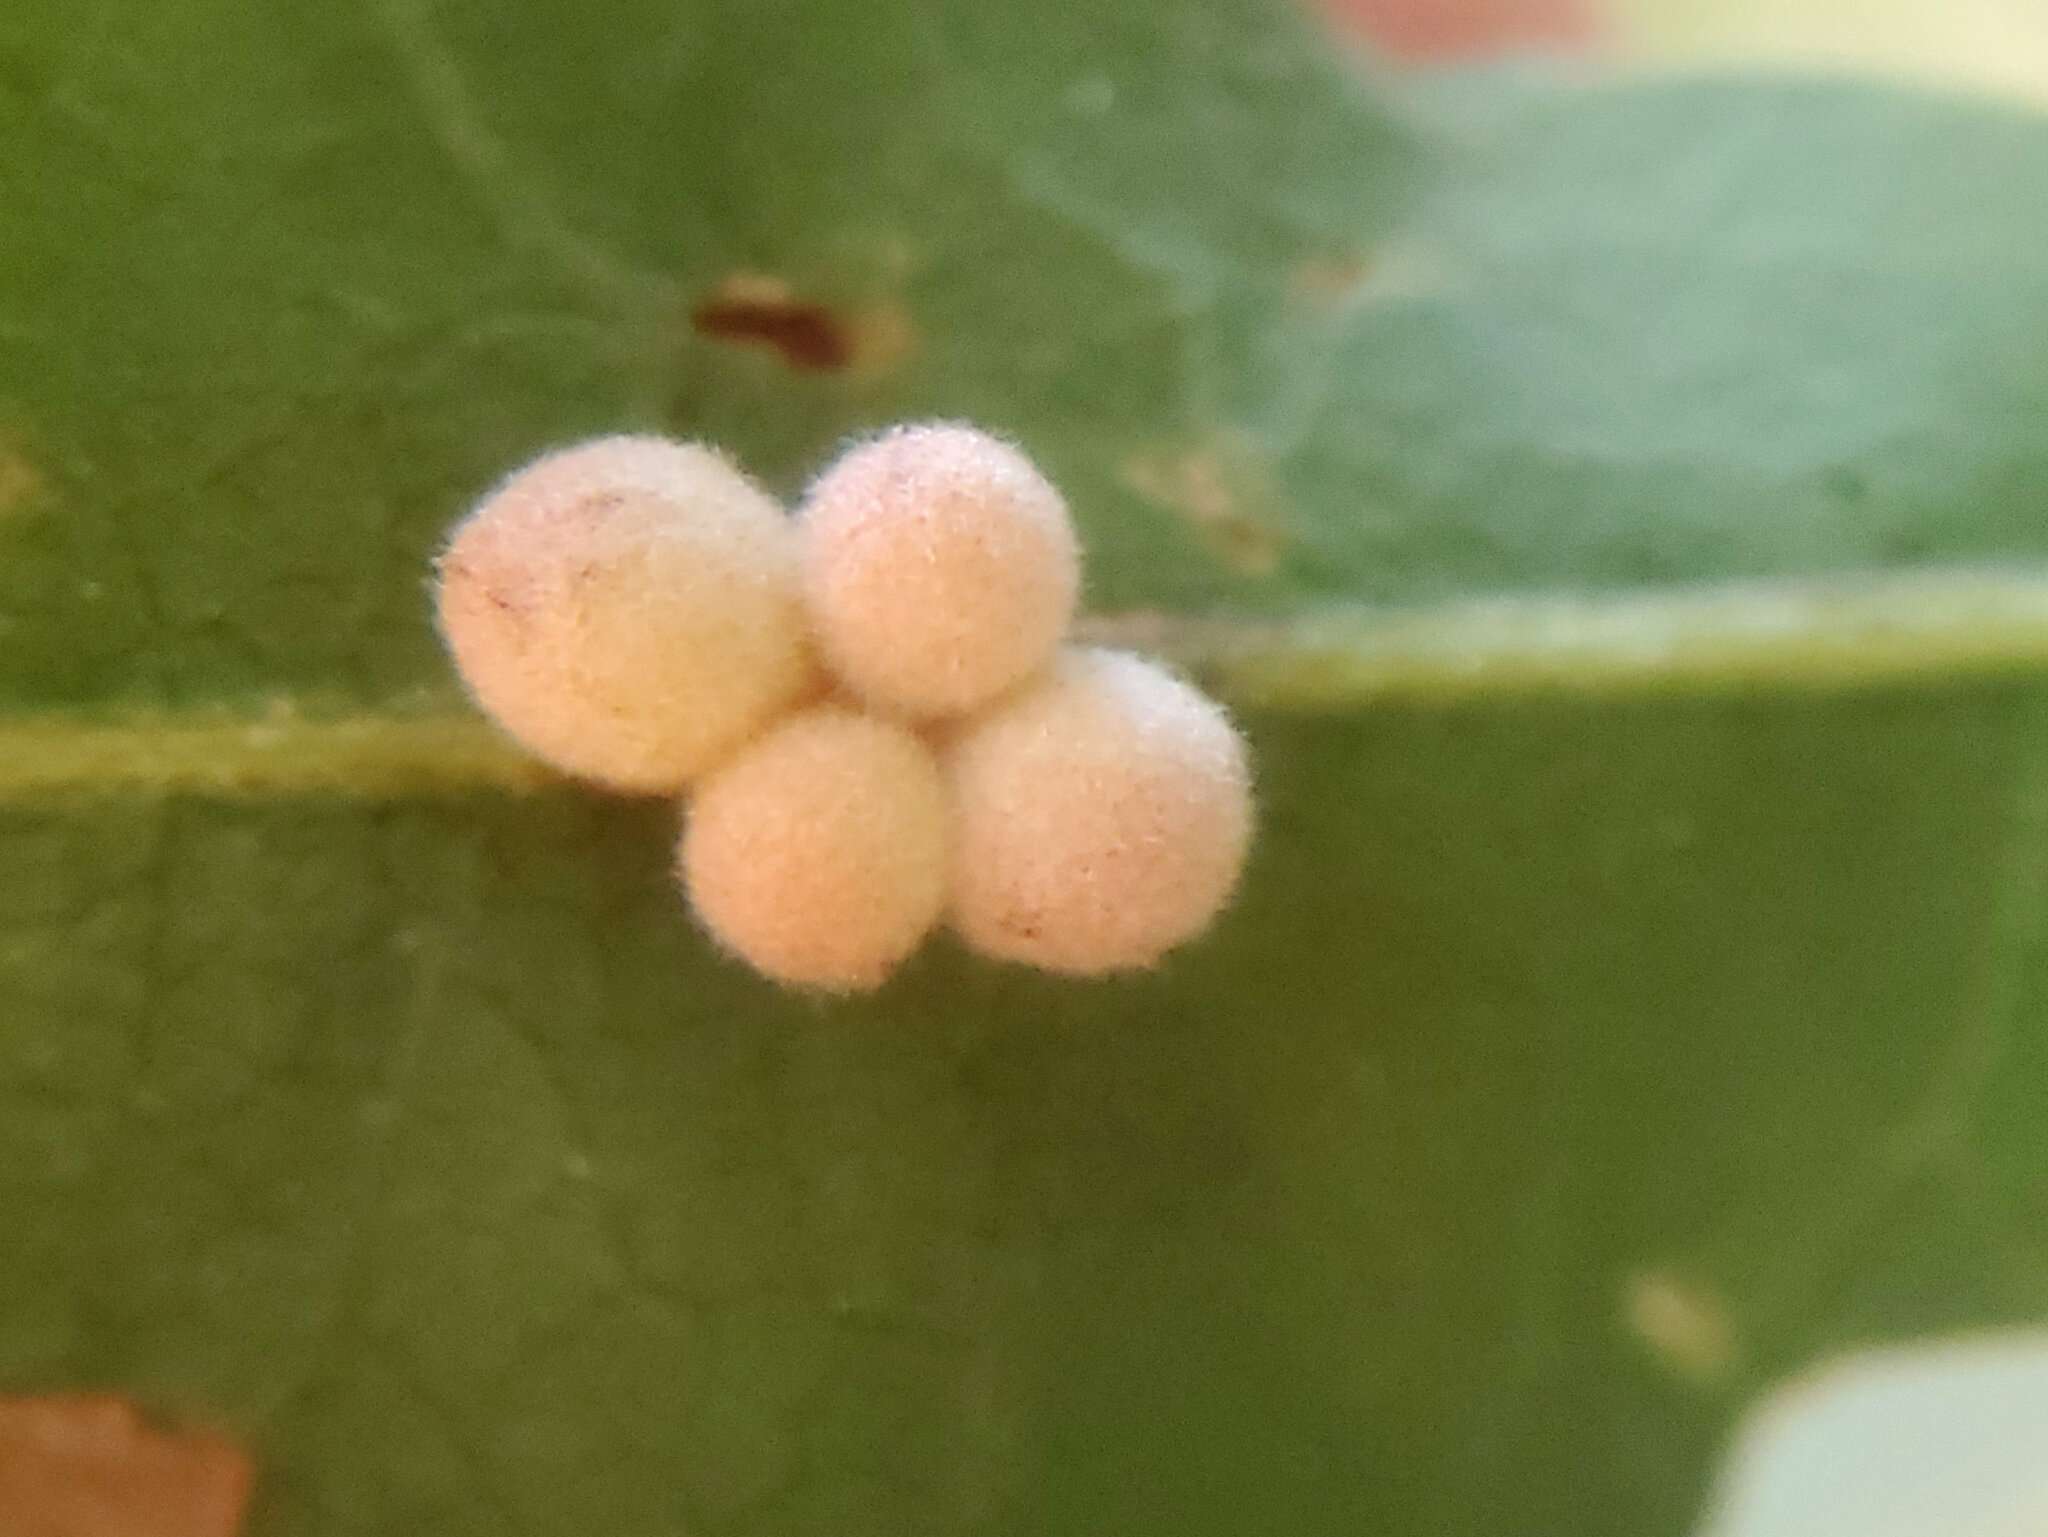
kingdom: Animalia
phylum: Arthropoda
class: Insecta
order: Hymenoptera
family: Cynipidae
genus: Andricus
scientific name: Andricus
